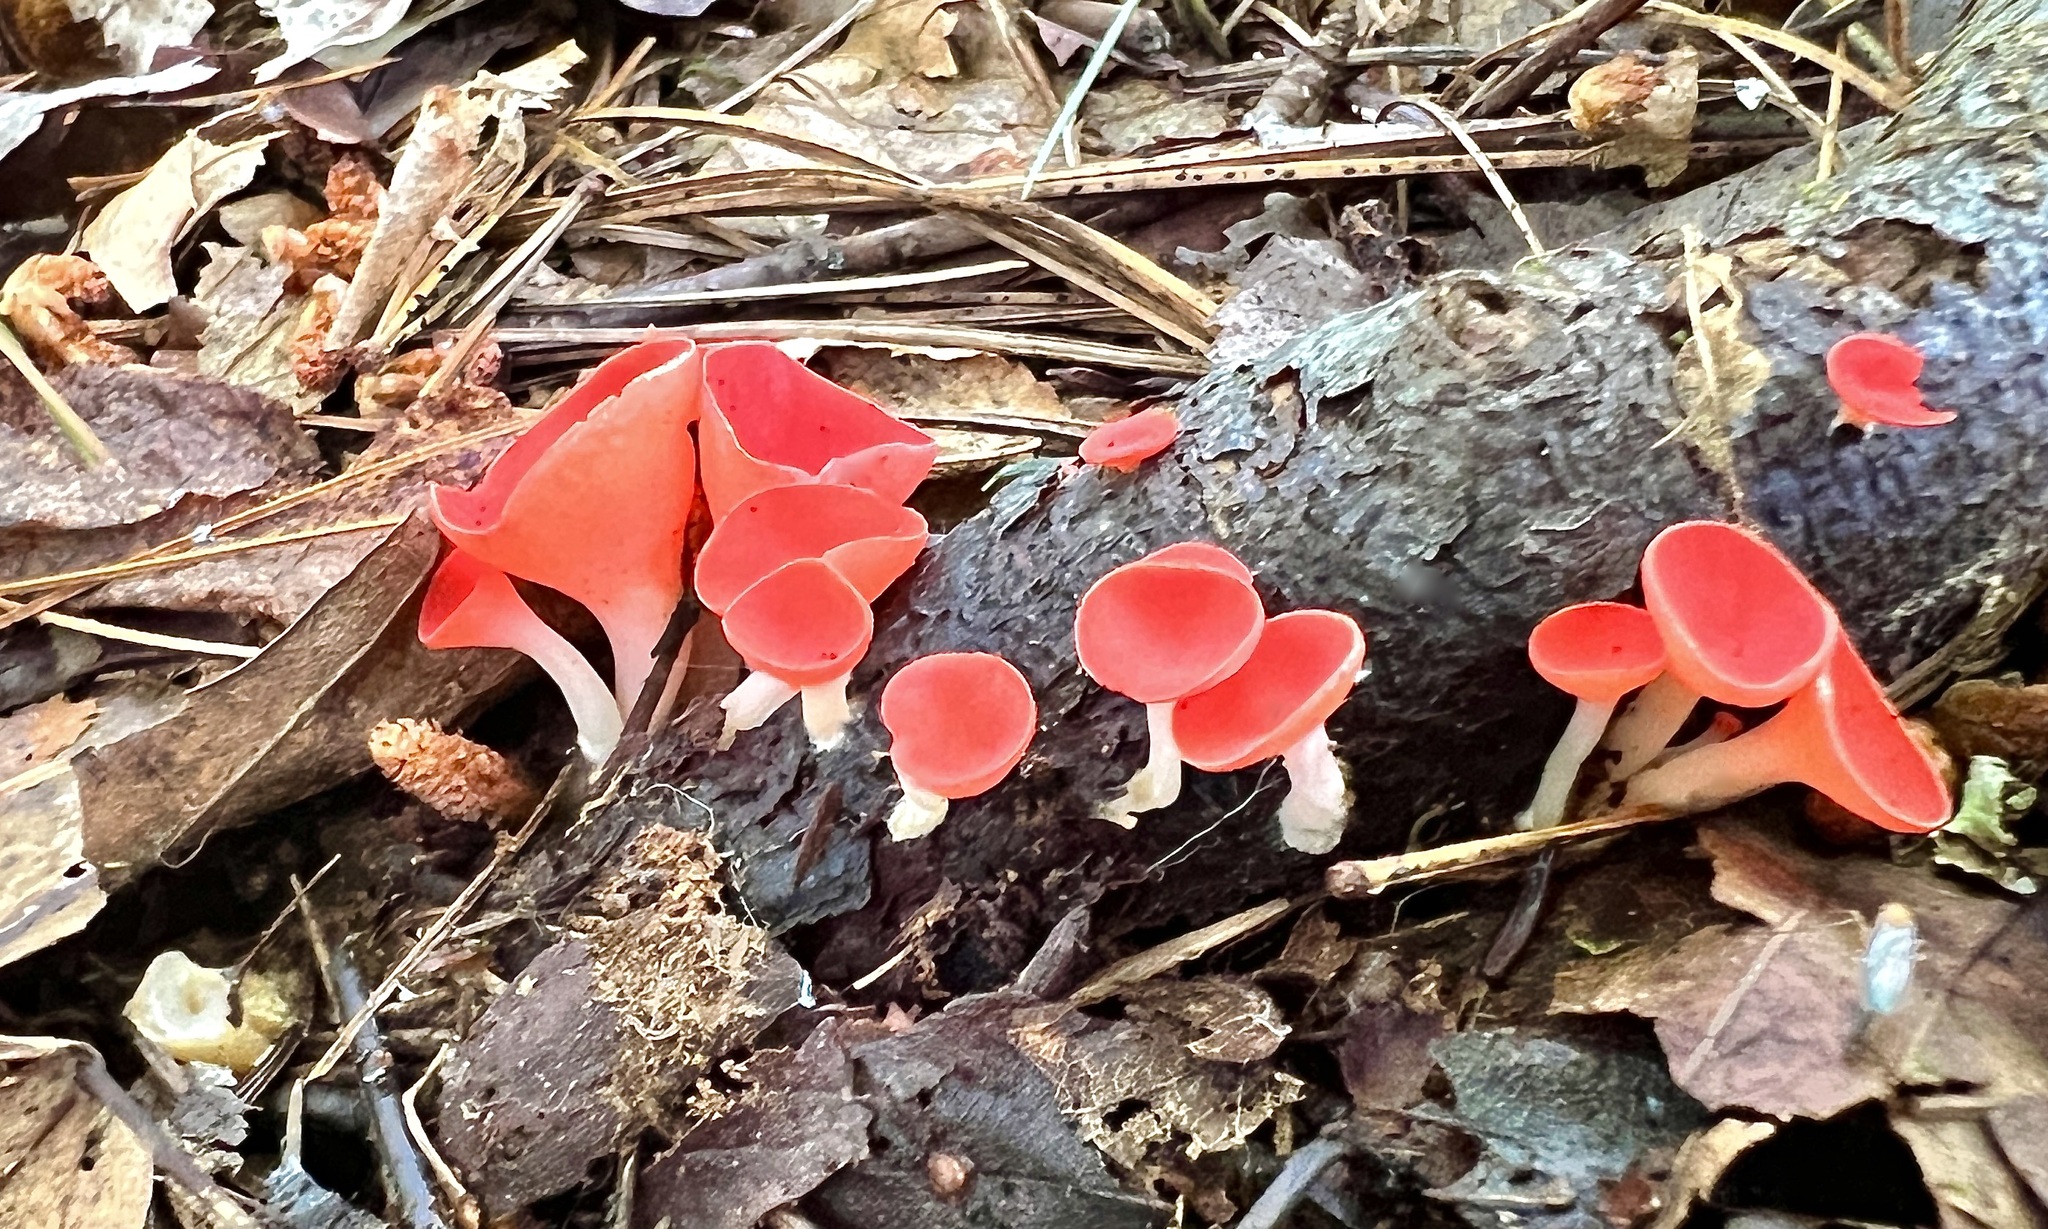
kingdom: Fungi
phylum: Ascomycota
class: Pezizomycetes
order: Pezizales
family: Sarcoscyphaceae
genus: Sarcoscypha
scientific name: Sarcoscypha occidentalis
